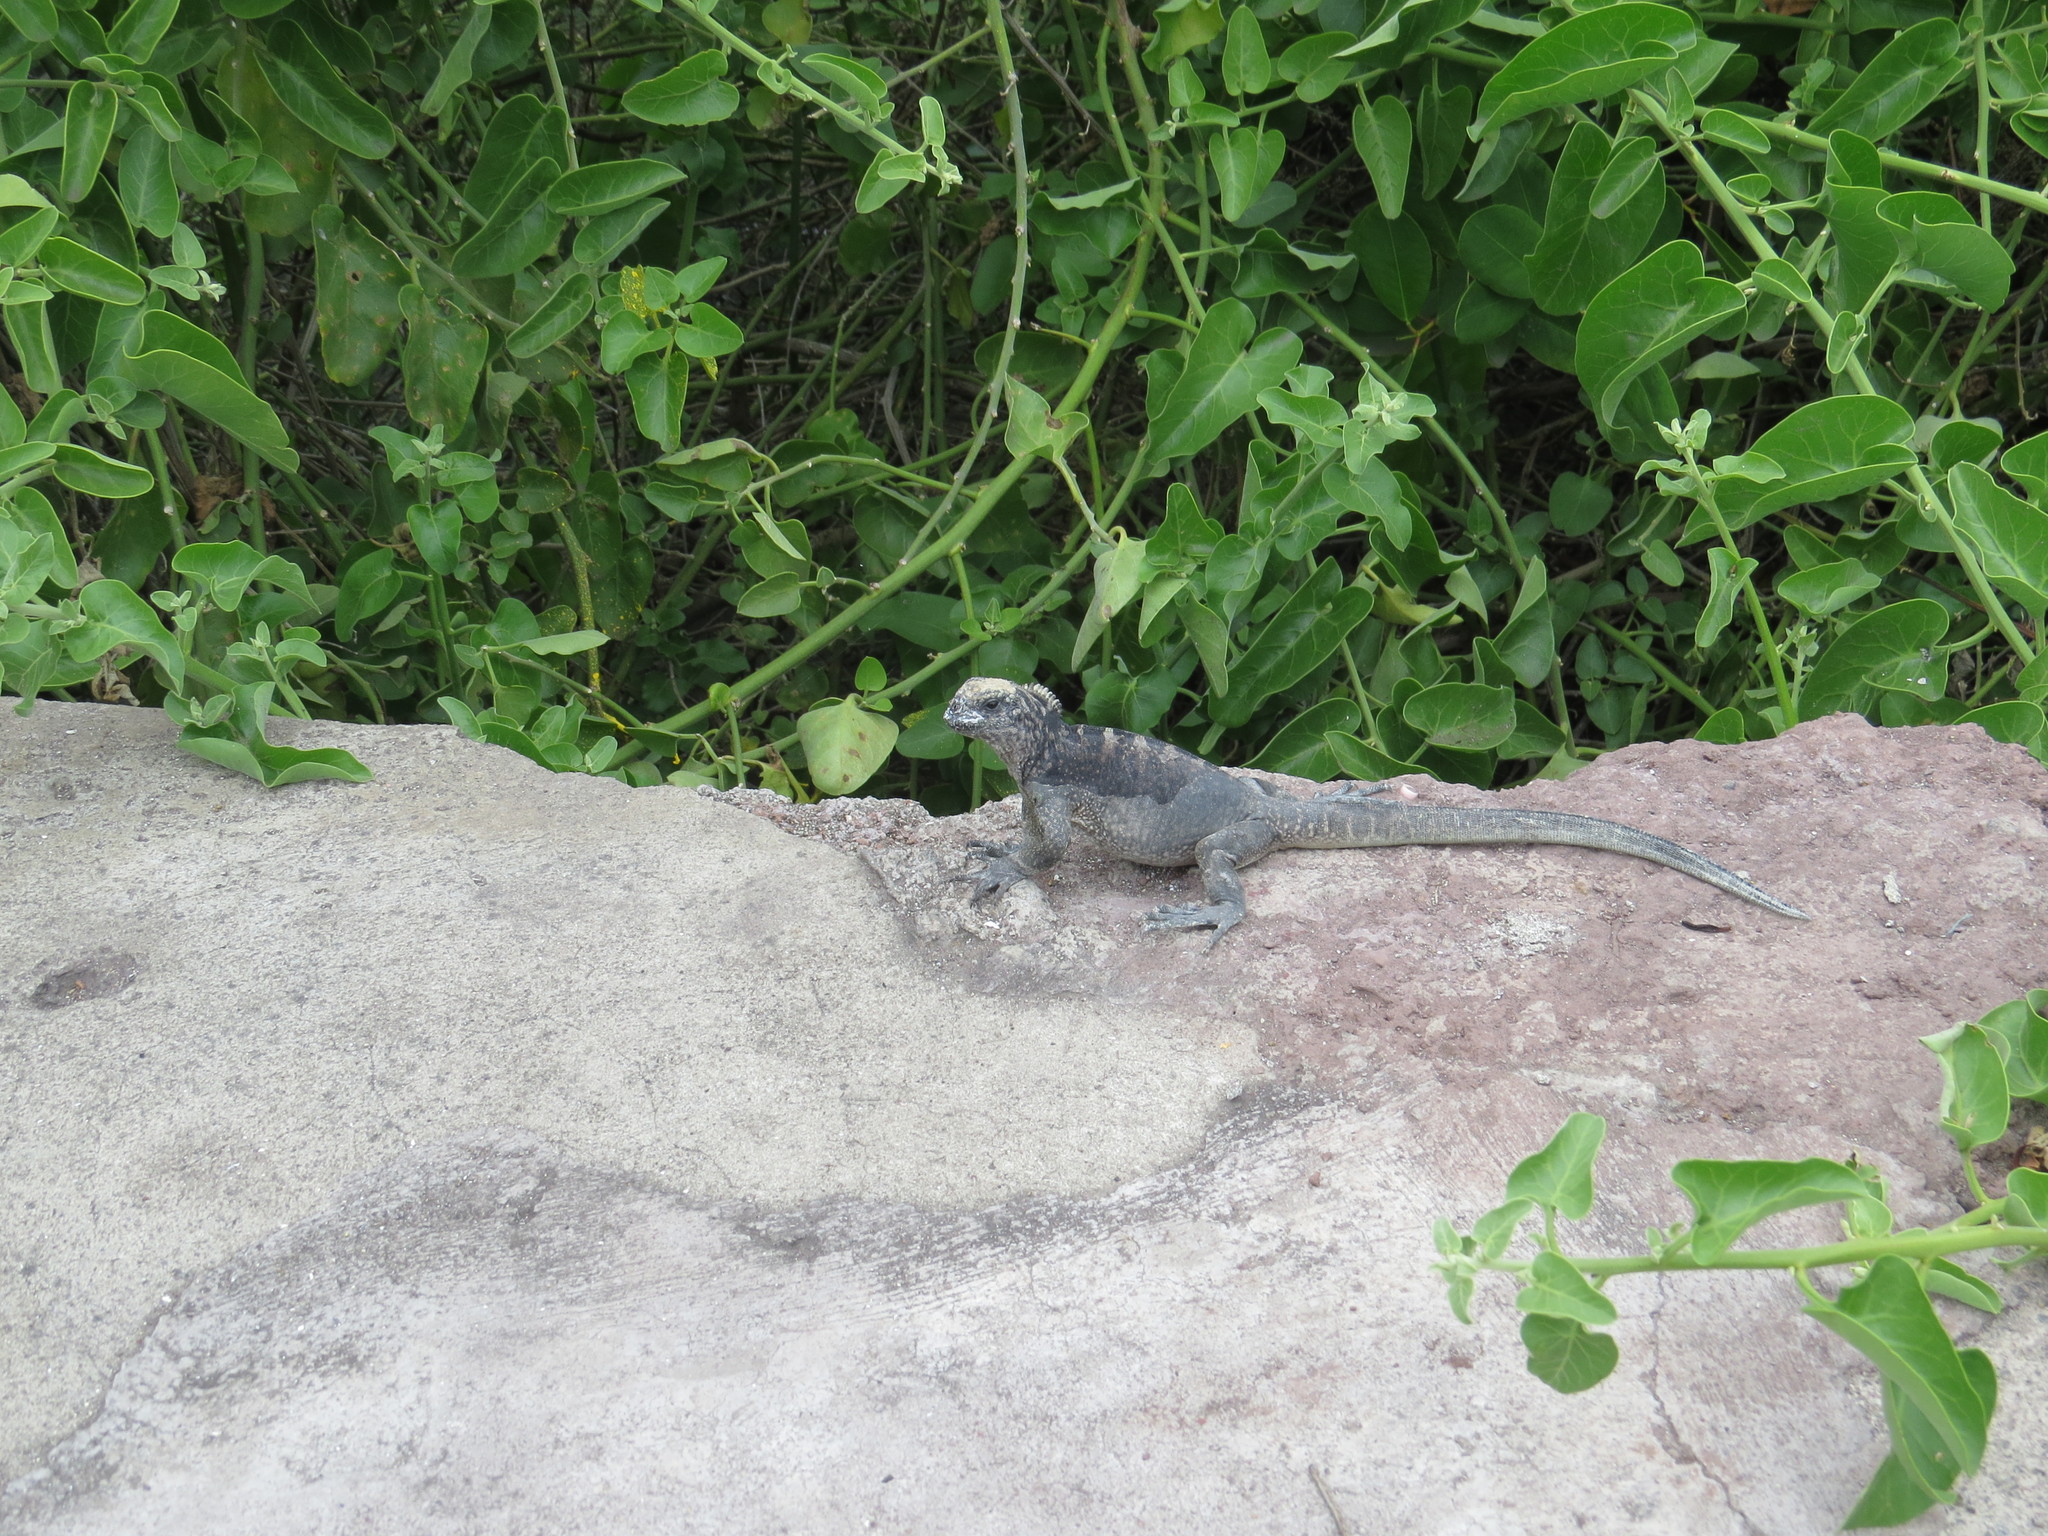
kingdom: Animalia
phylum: Chordata
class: Squamata
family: Iguanidae
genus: Amblyrhynchus
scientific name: Amblyrhynchus cristatus
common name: Marine iguana
